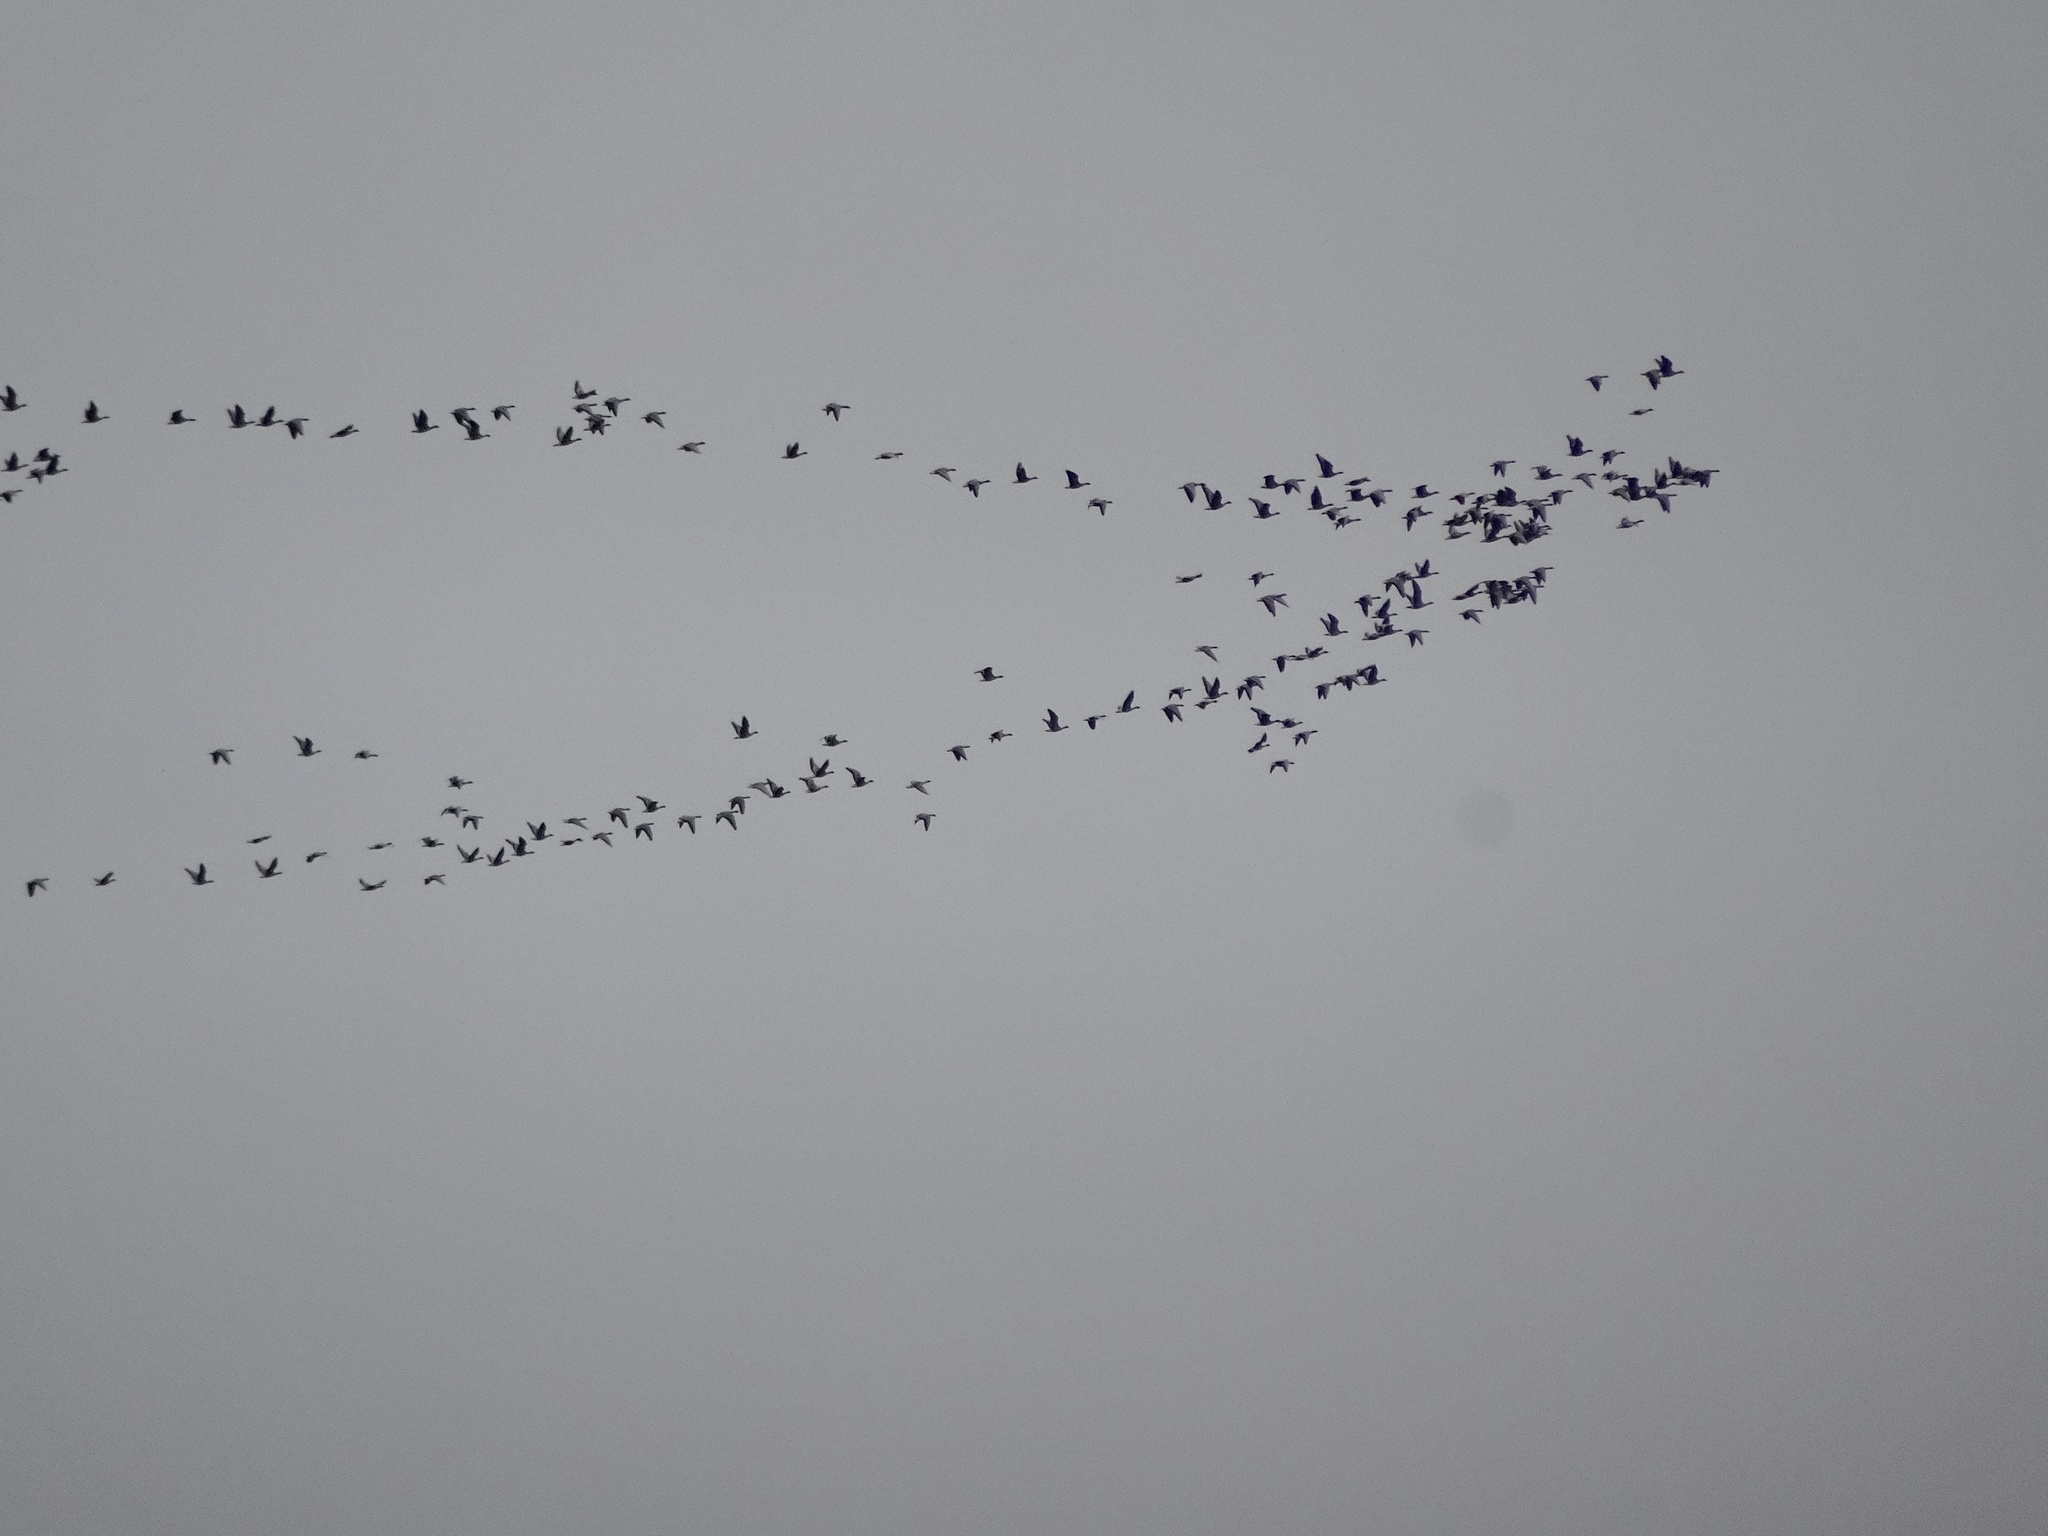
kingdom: Animalia
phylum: Chordata
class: Aves
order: Anseriformes
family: Anatidae
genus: Anser
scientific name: Anser brachyrhynchus
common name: Pink-footed goose
